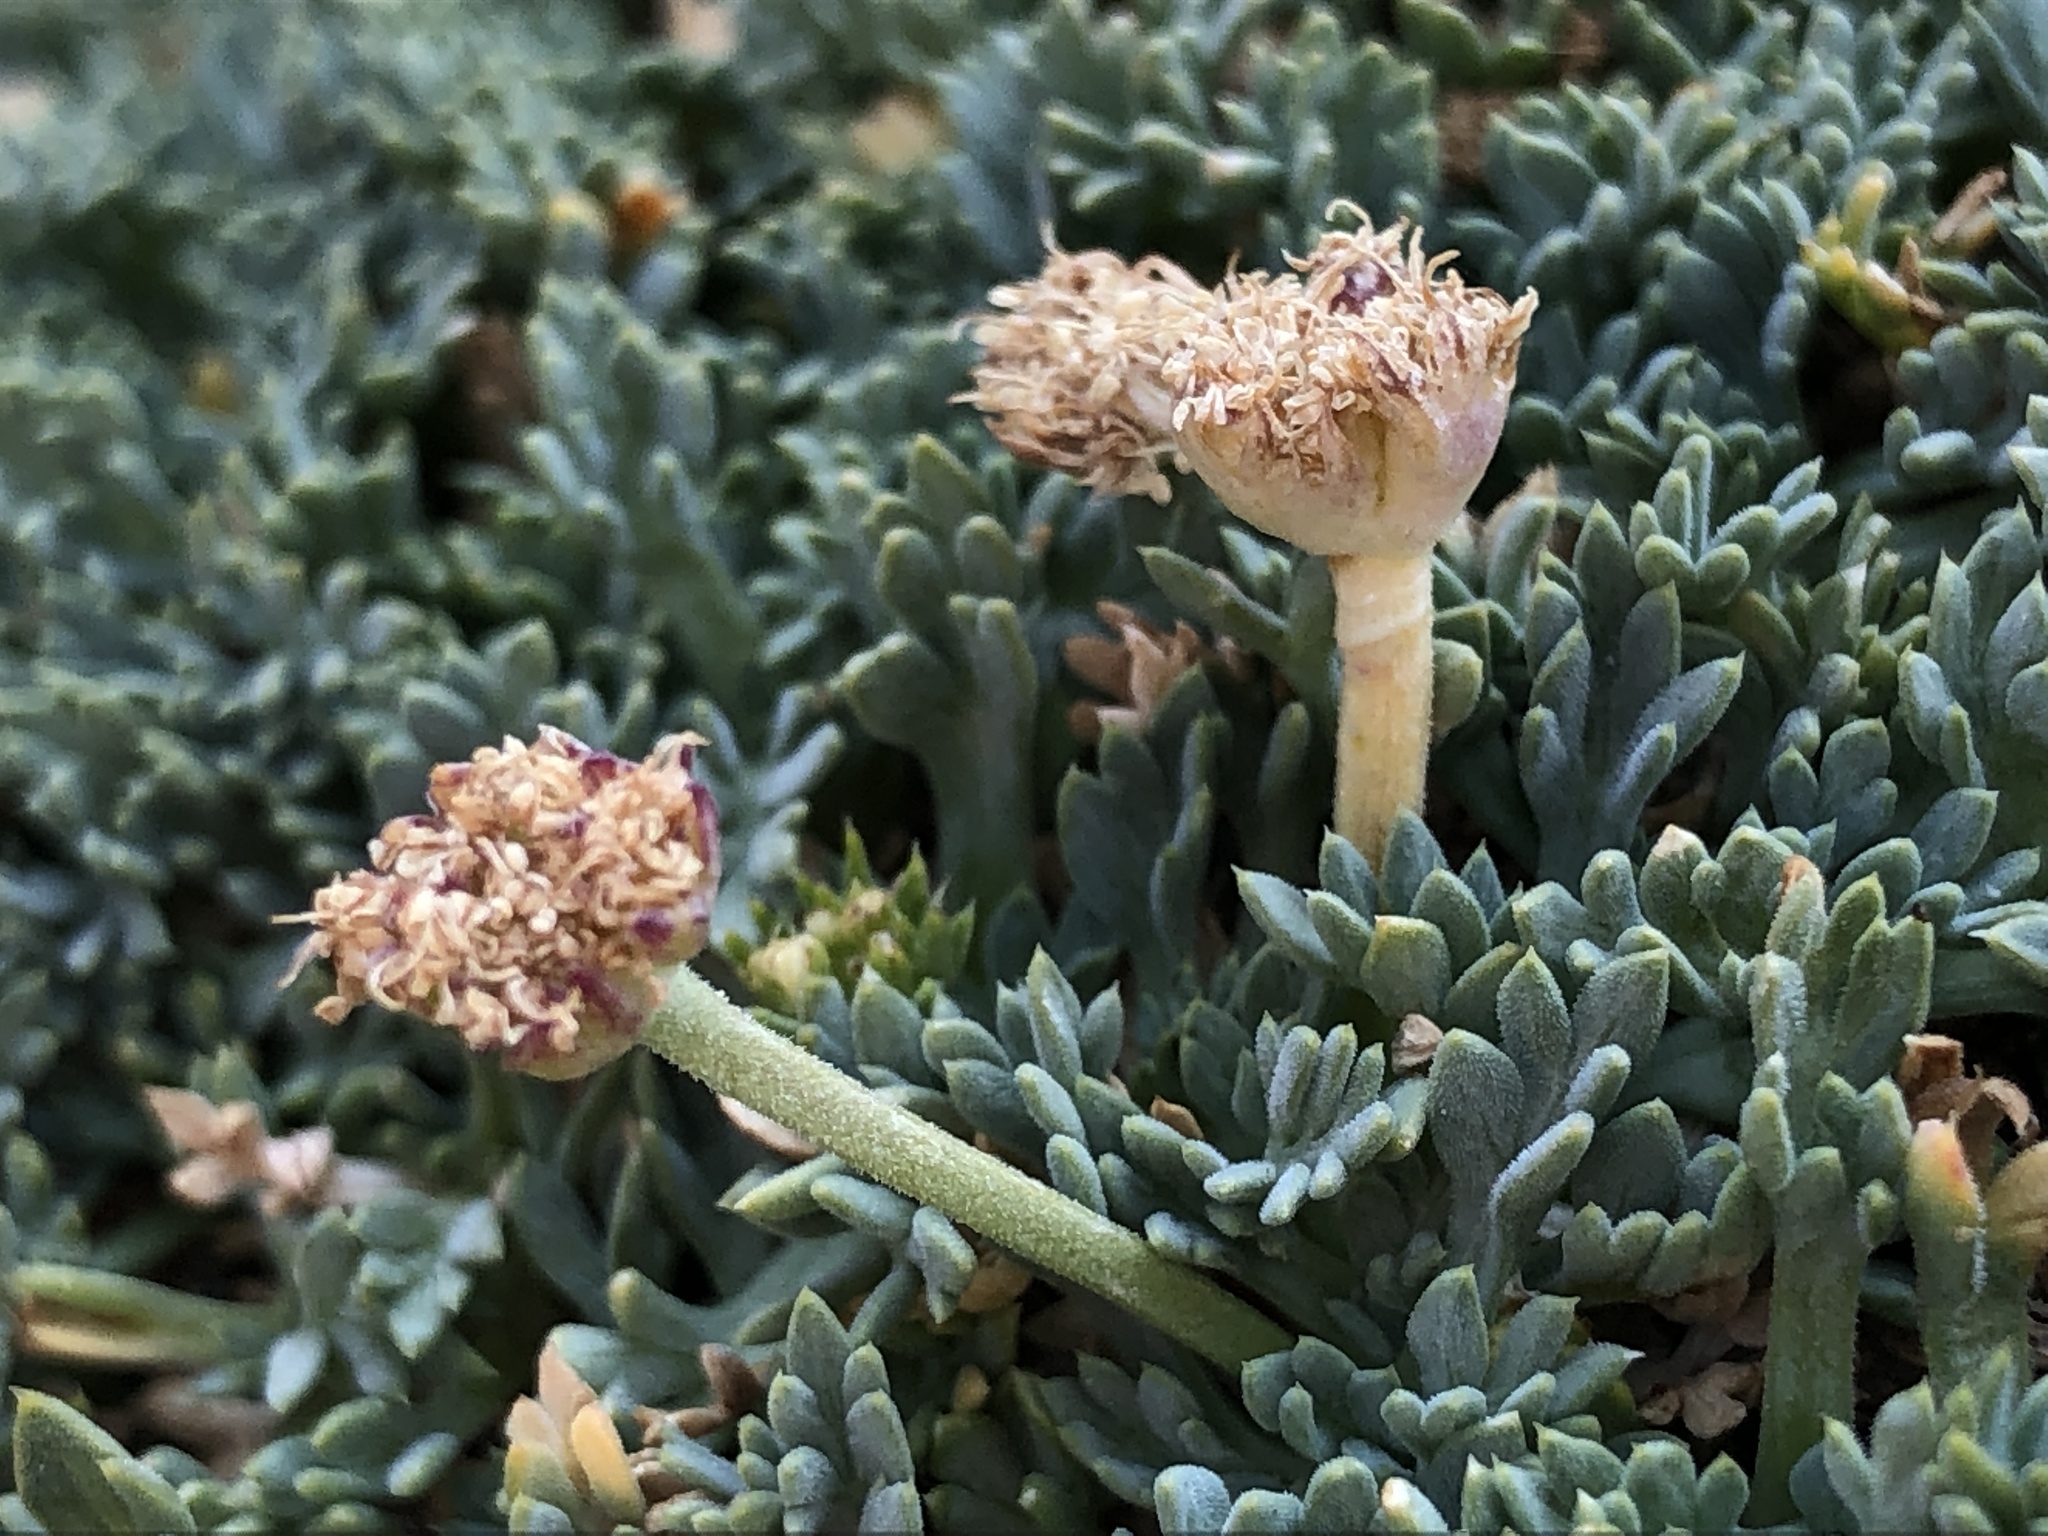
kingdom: Plantae
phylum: Tracheophyta
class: Magnoliopsida
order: Apiales
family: Apiaceae
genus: Podistera
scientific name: Podistera nevadensis
